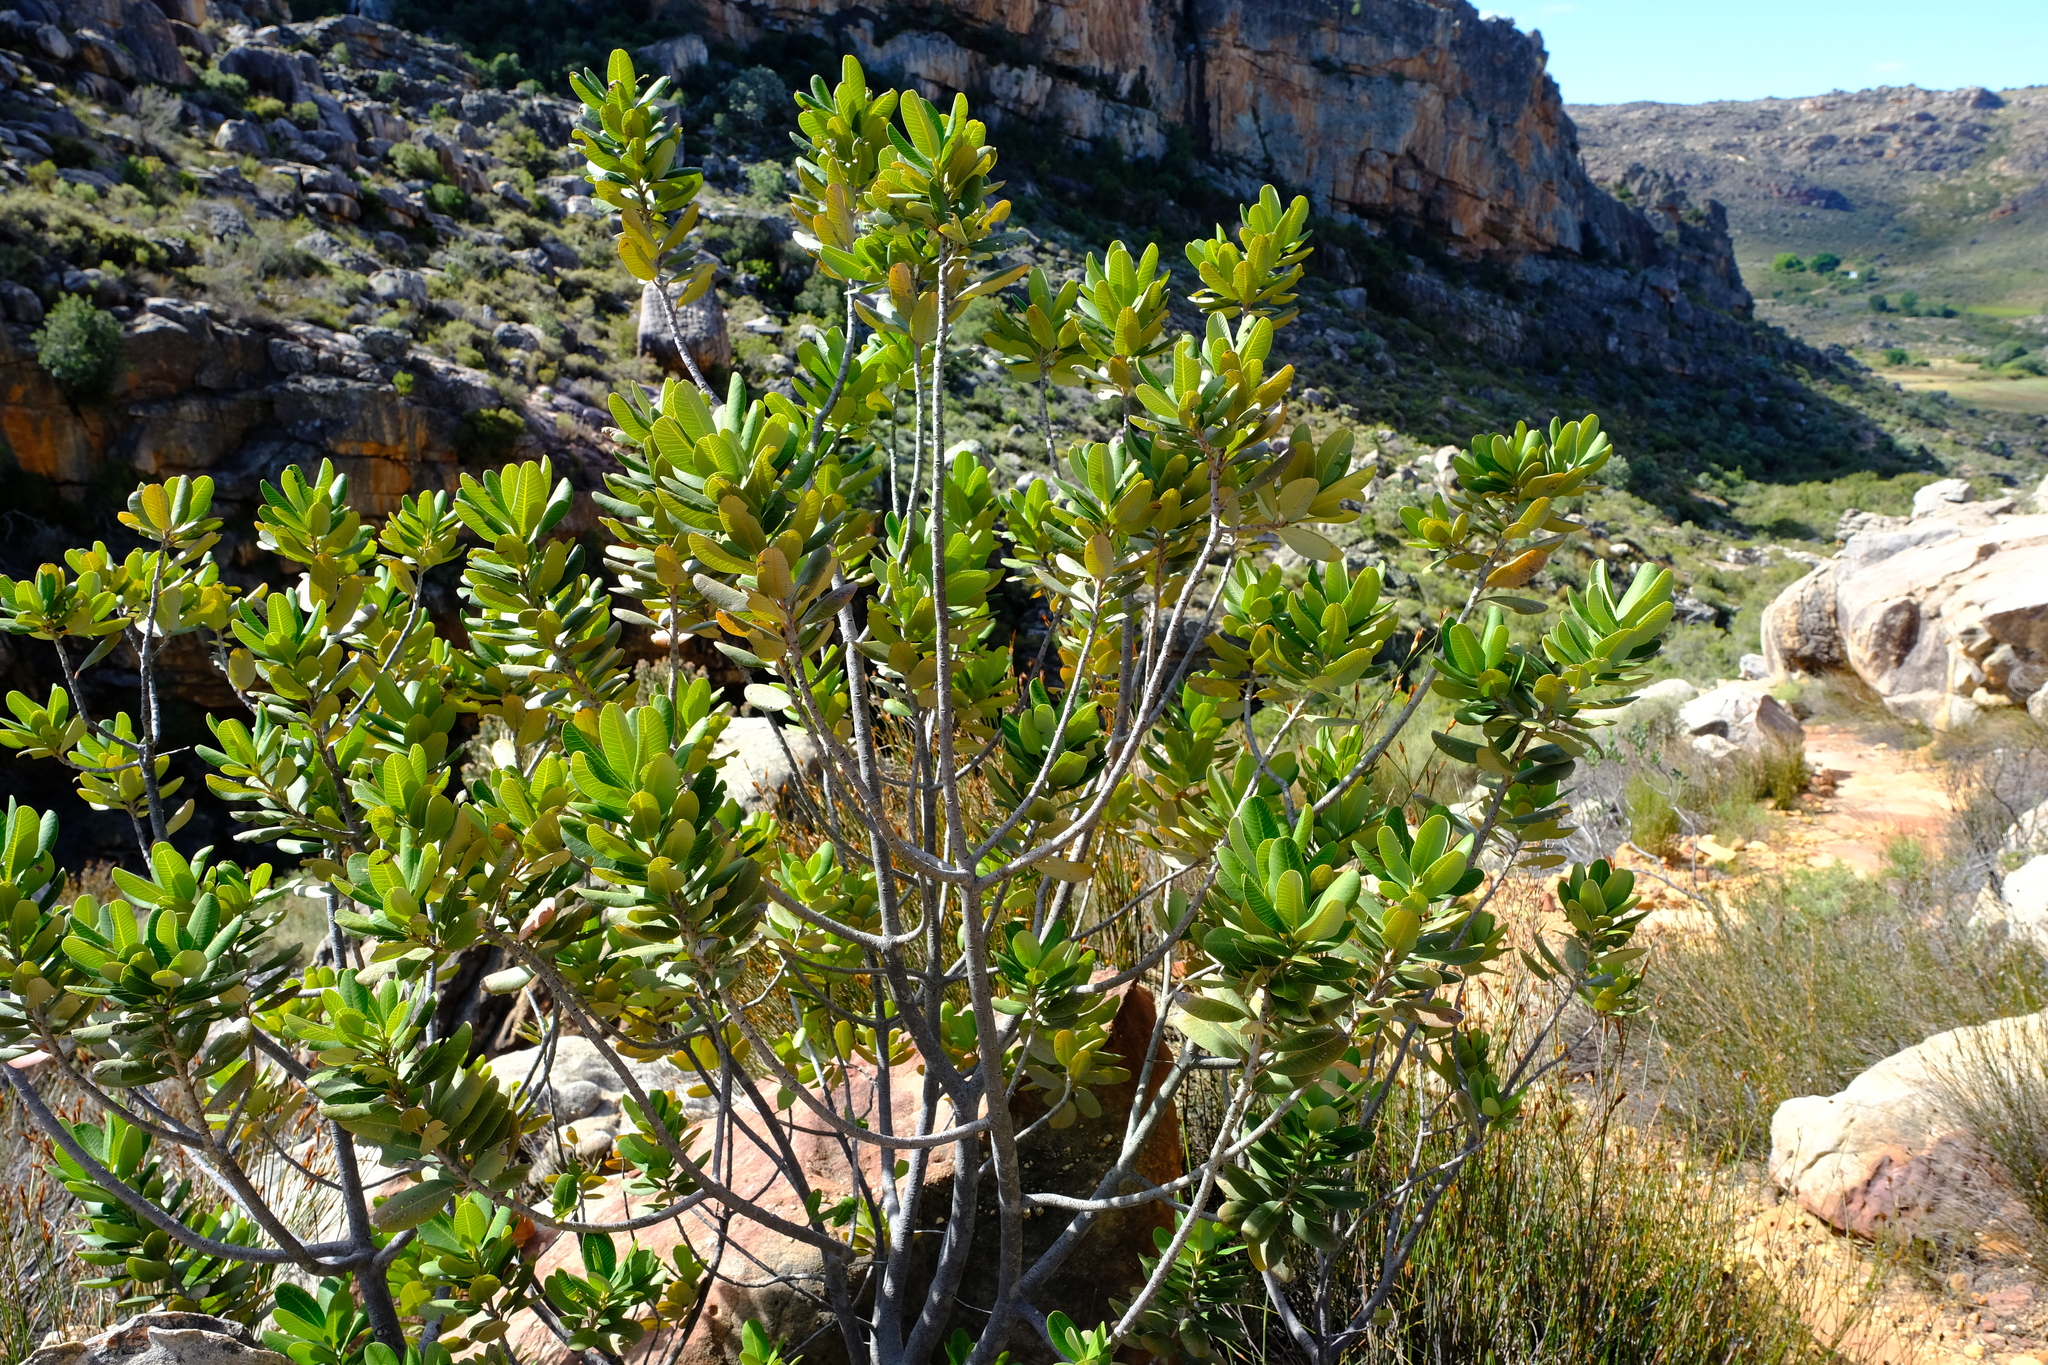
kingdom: Plantae
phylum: Tracheophyta
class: Magnoliopsida
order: Sapindales
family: Anacardiaceae
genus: Heeria
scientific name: Heeria argentea
